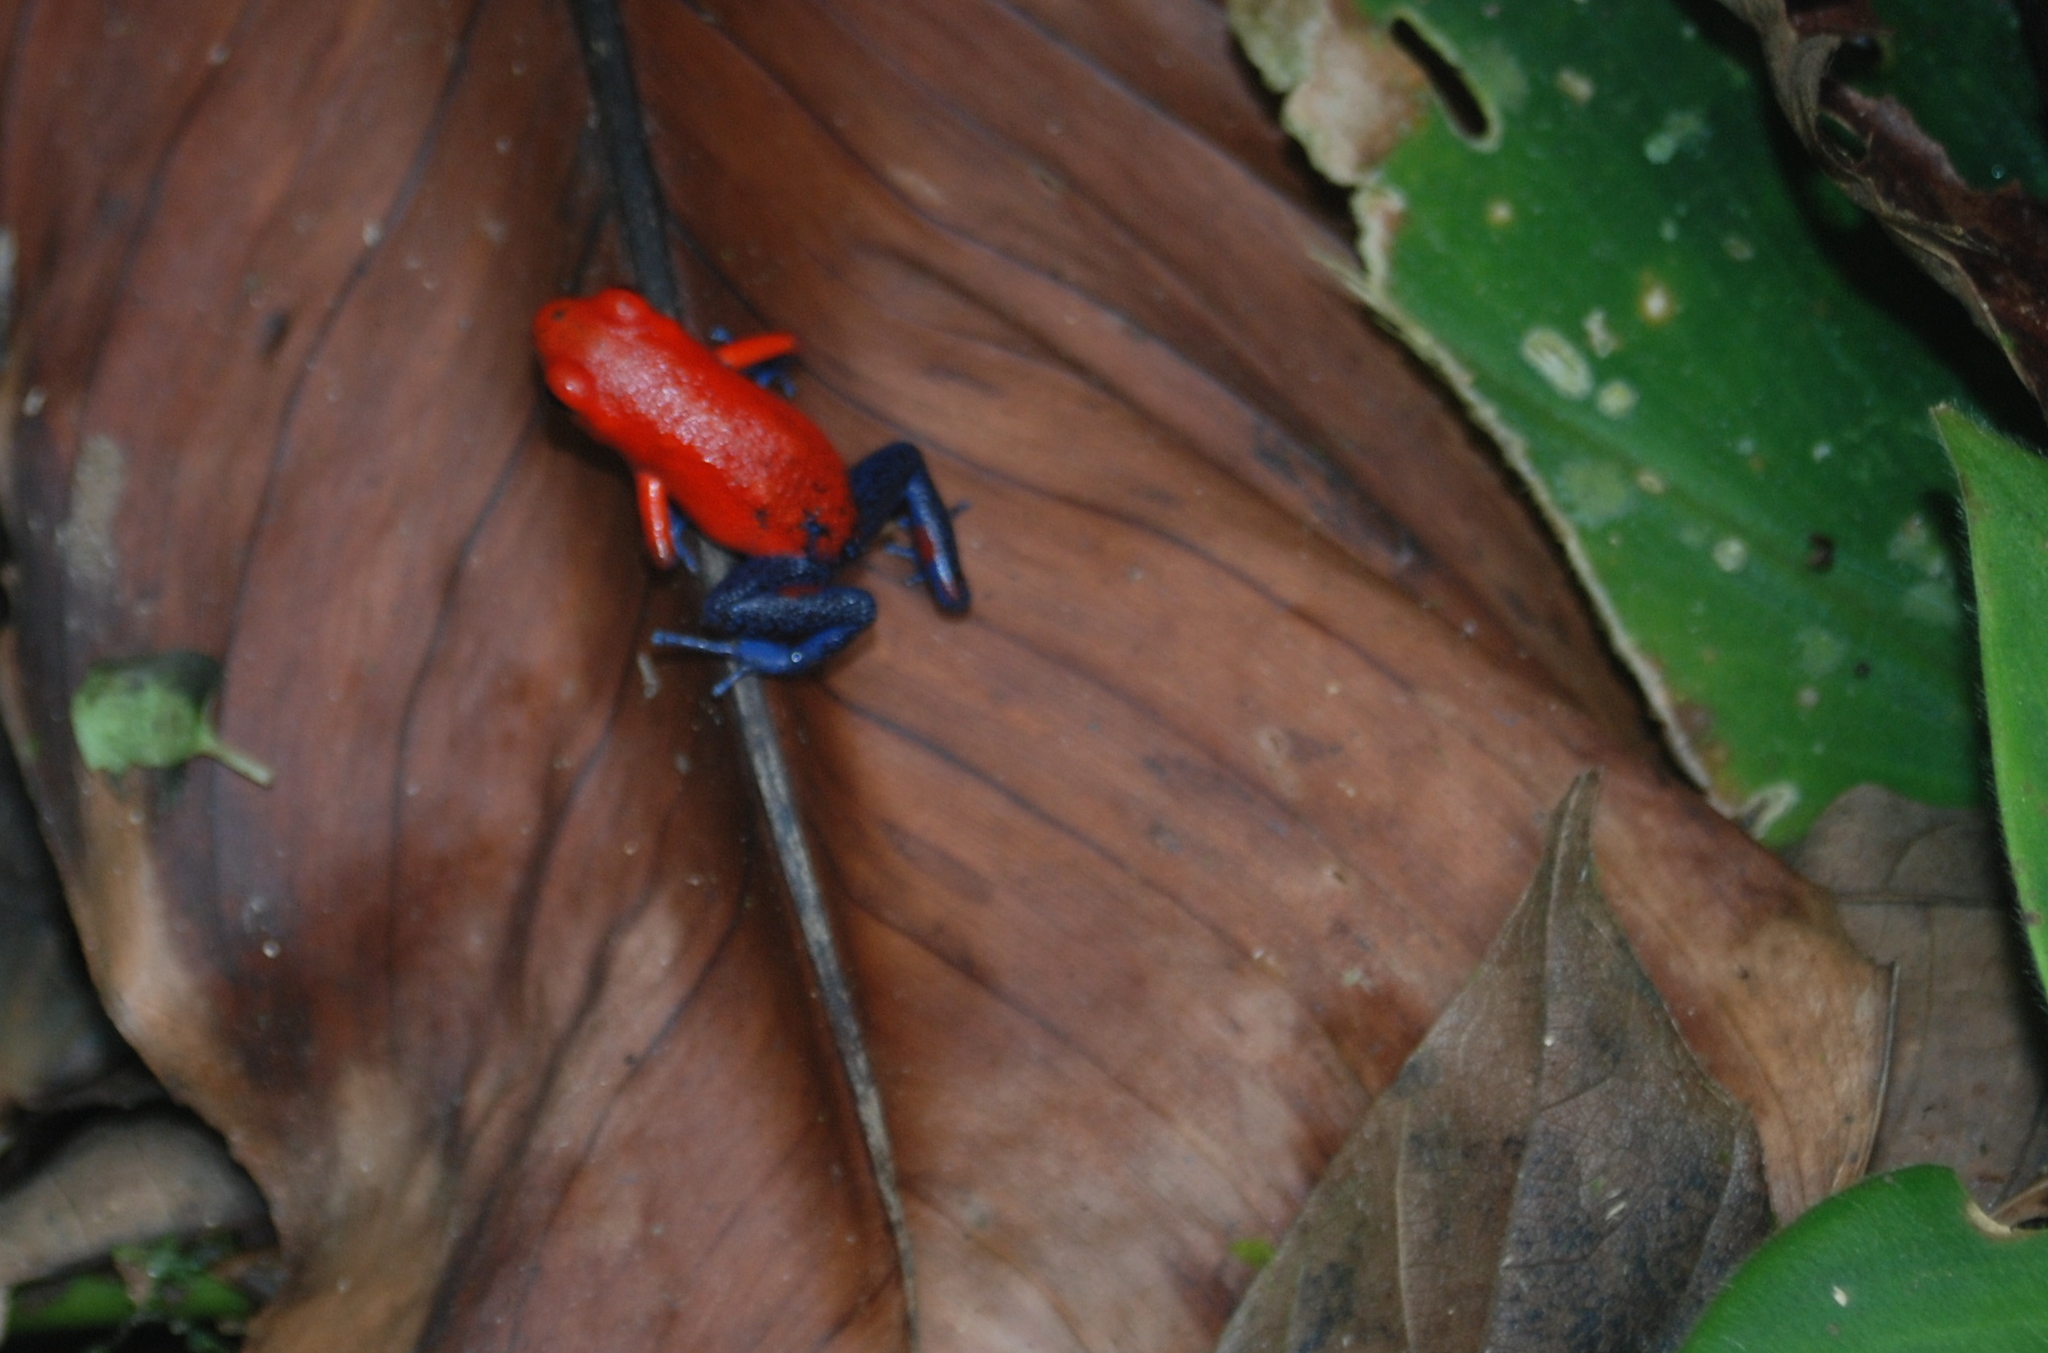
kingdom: Animalia
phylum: Chordata
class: Amphibia
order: Anura
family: Dendrobatidae
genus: Oophaga
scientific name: Oophaga pumilio
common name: Flaming poison frog
